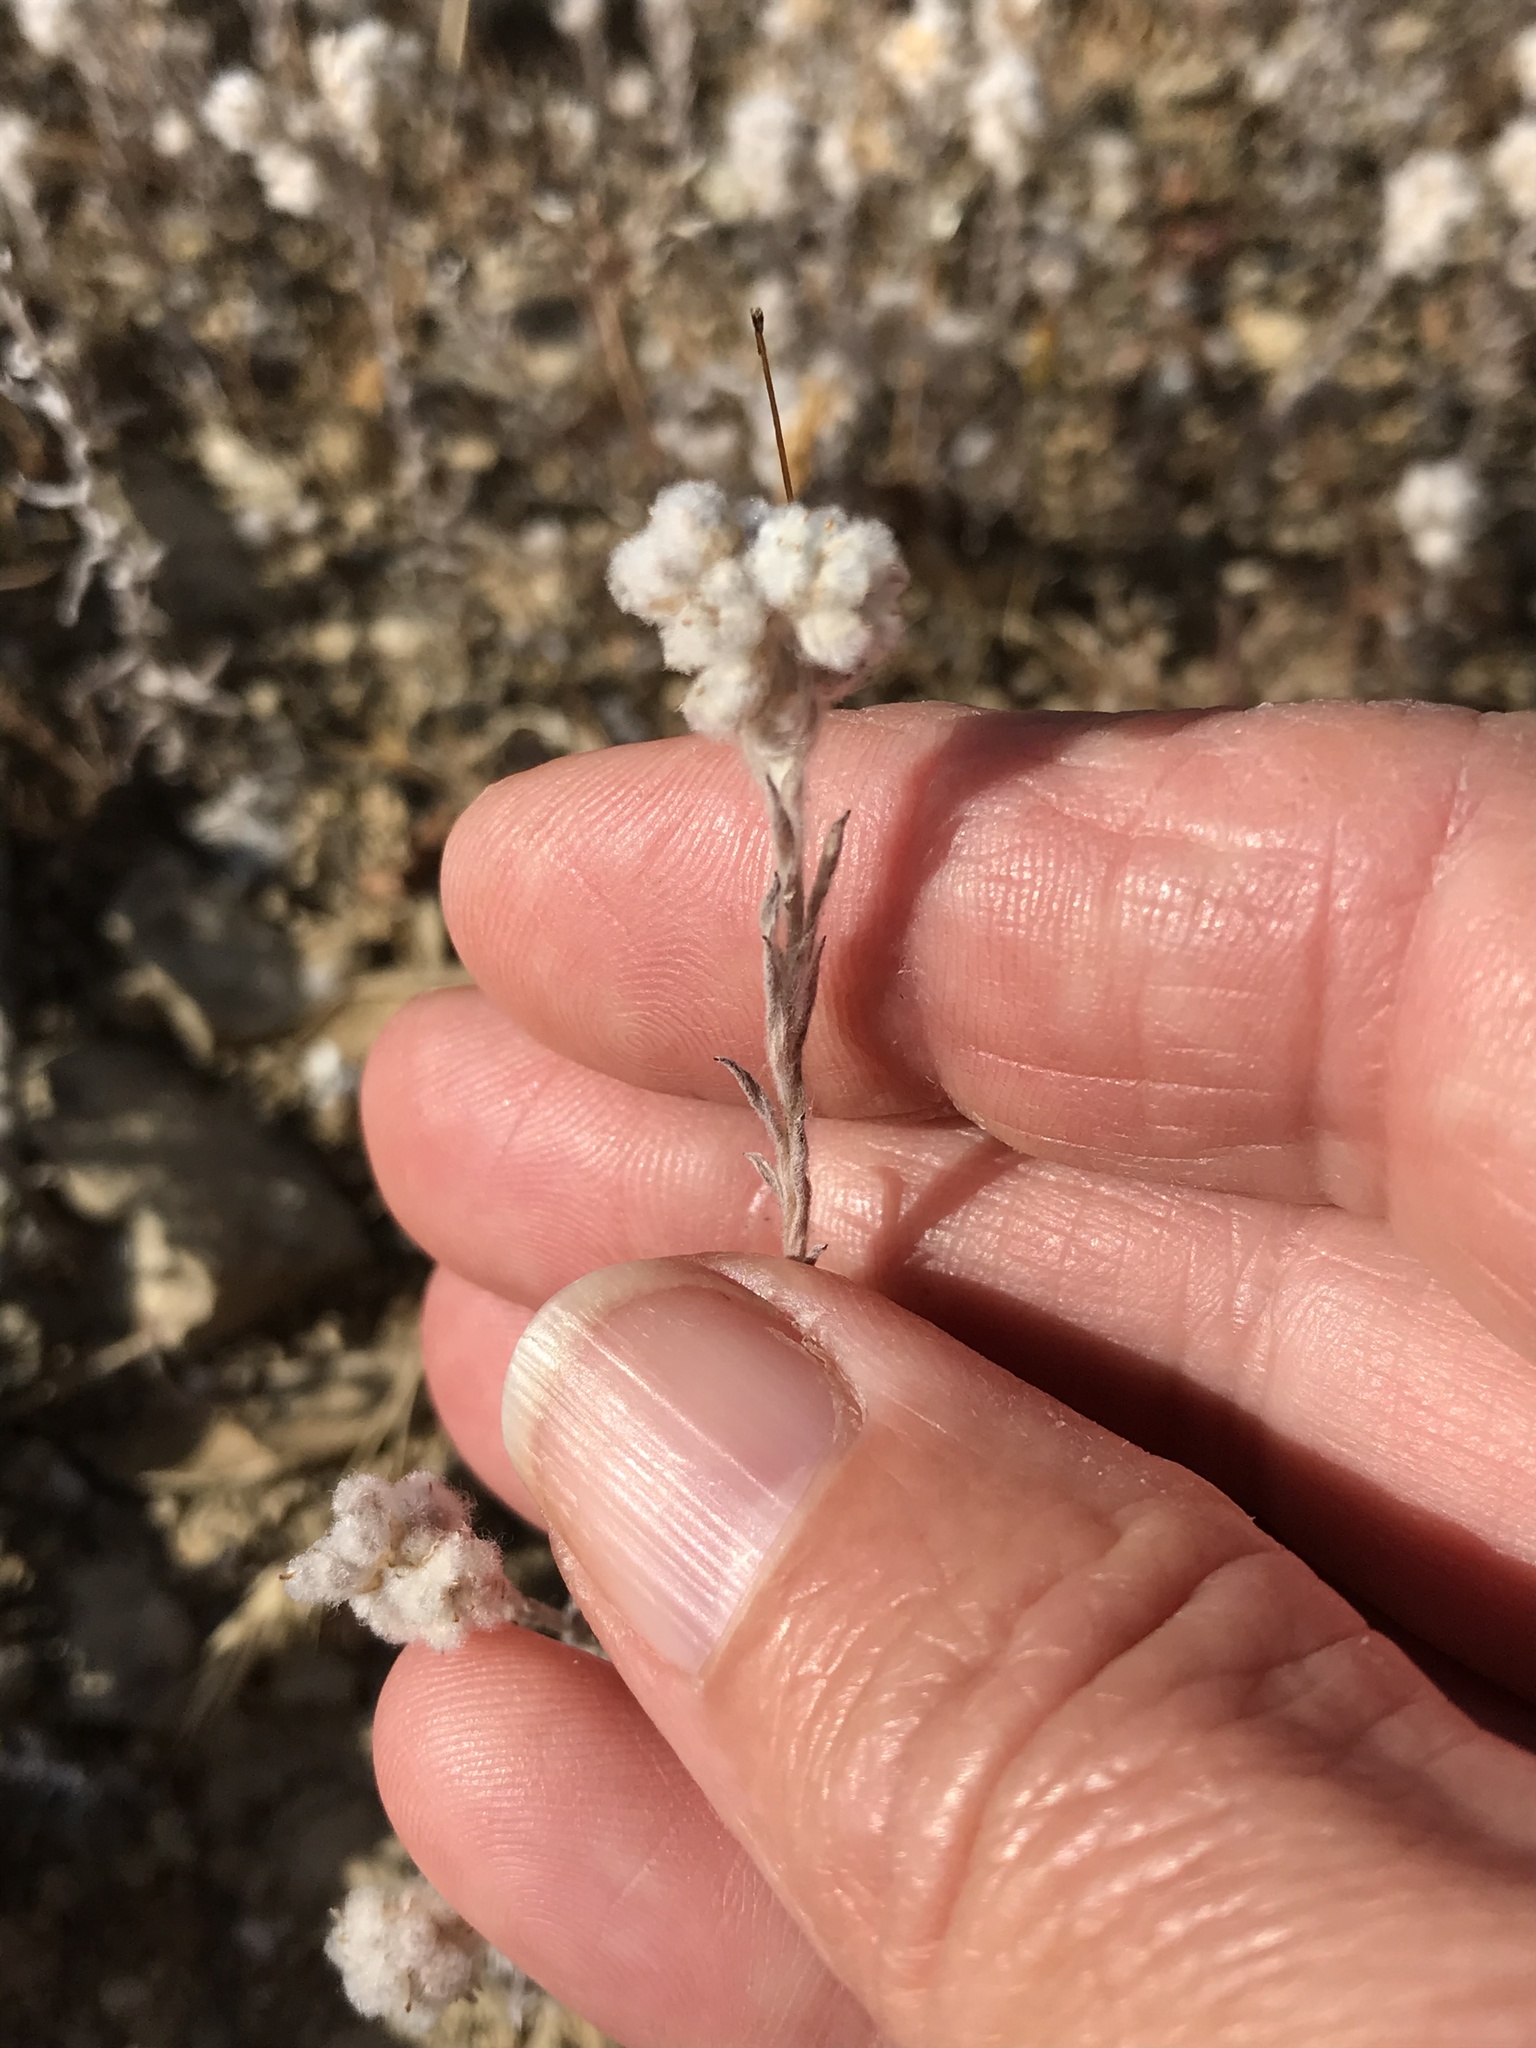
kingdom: Plantae
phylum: Tracheophyta
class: Magnoliopsida
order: Asterales
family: Asteraceae
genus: Bombycilaena
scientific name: Bombycilaena californica
